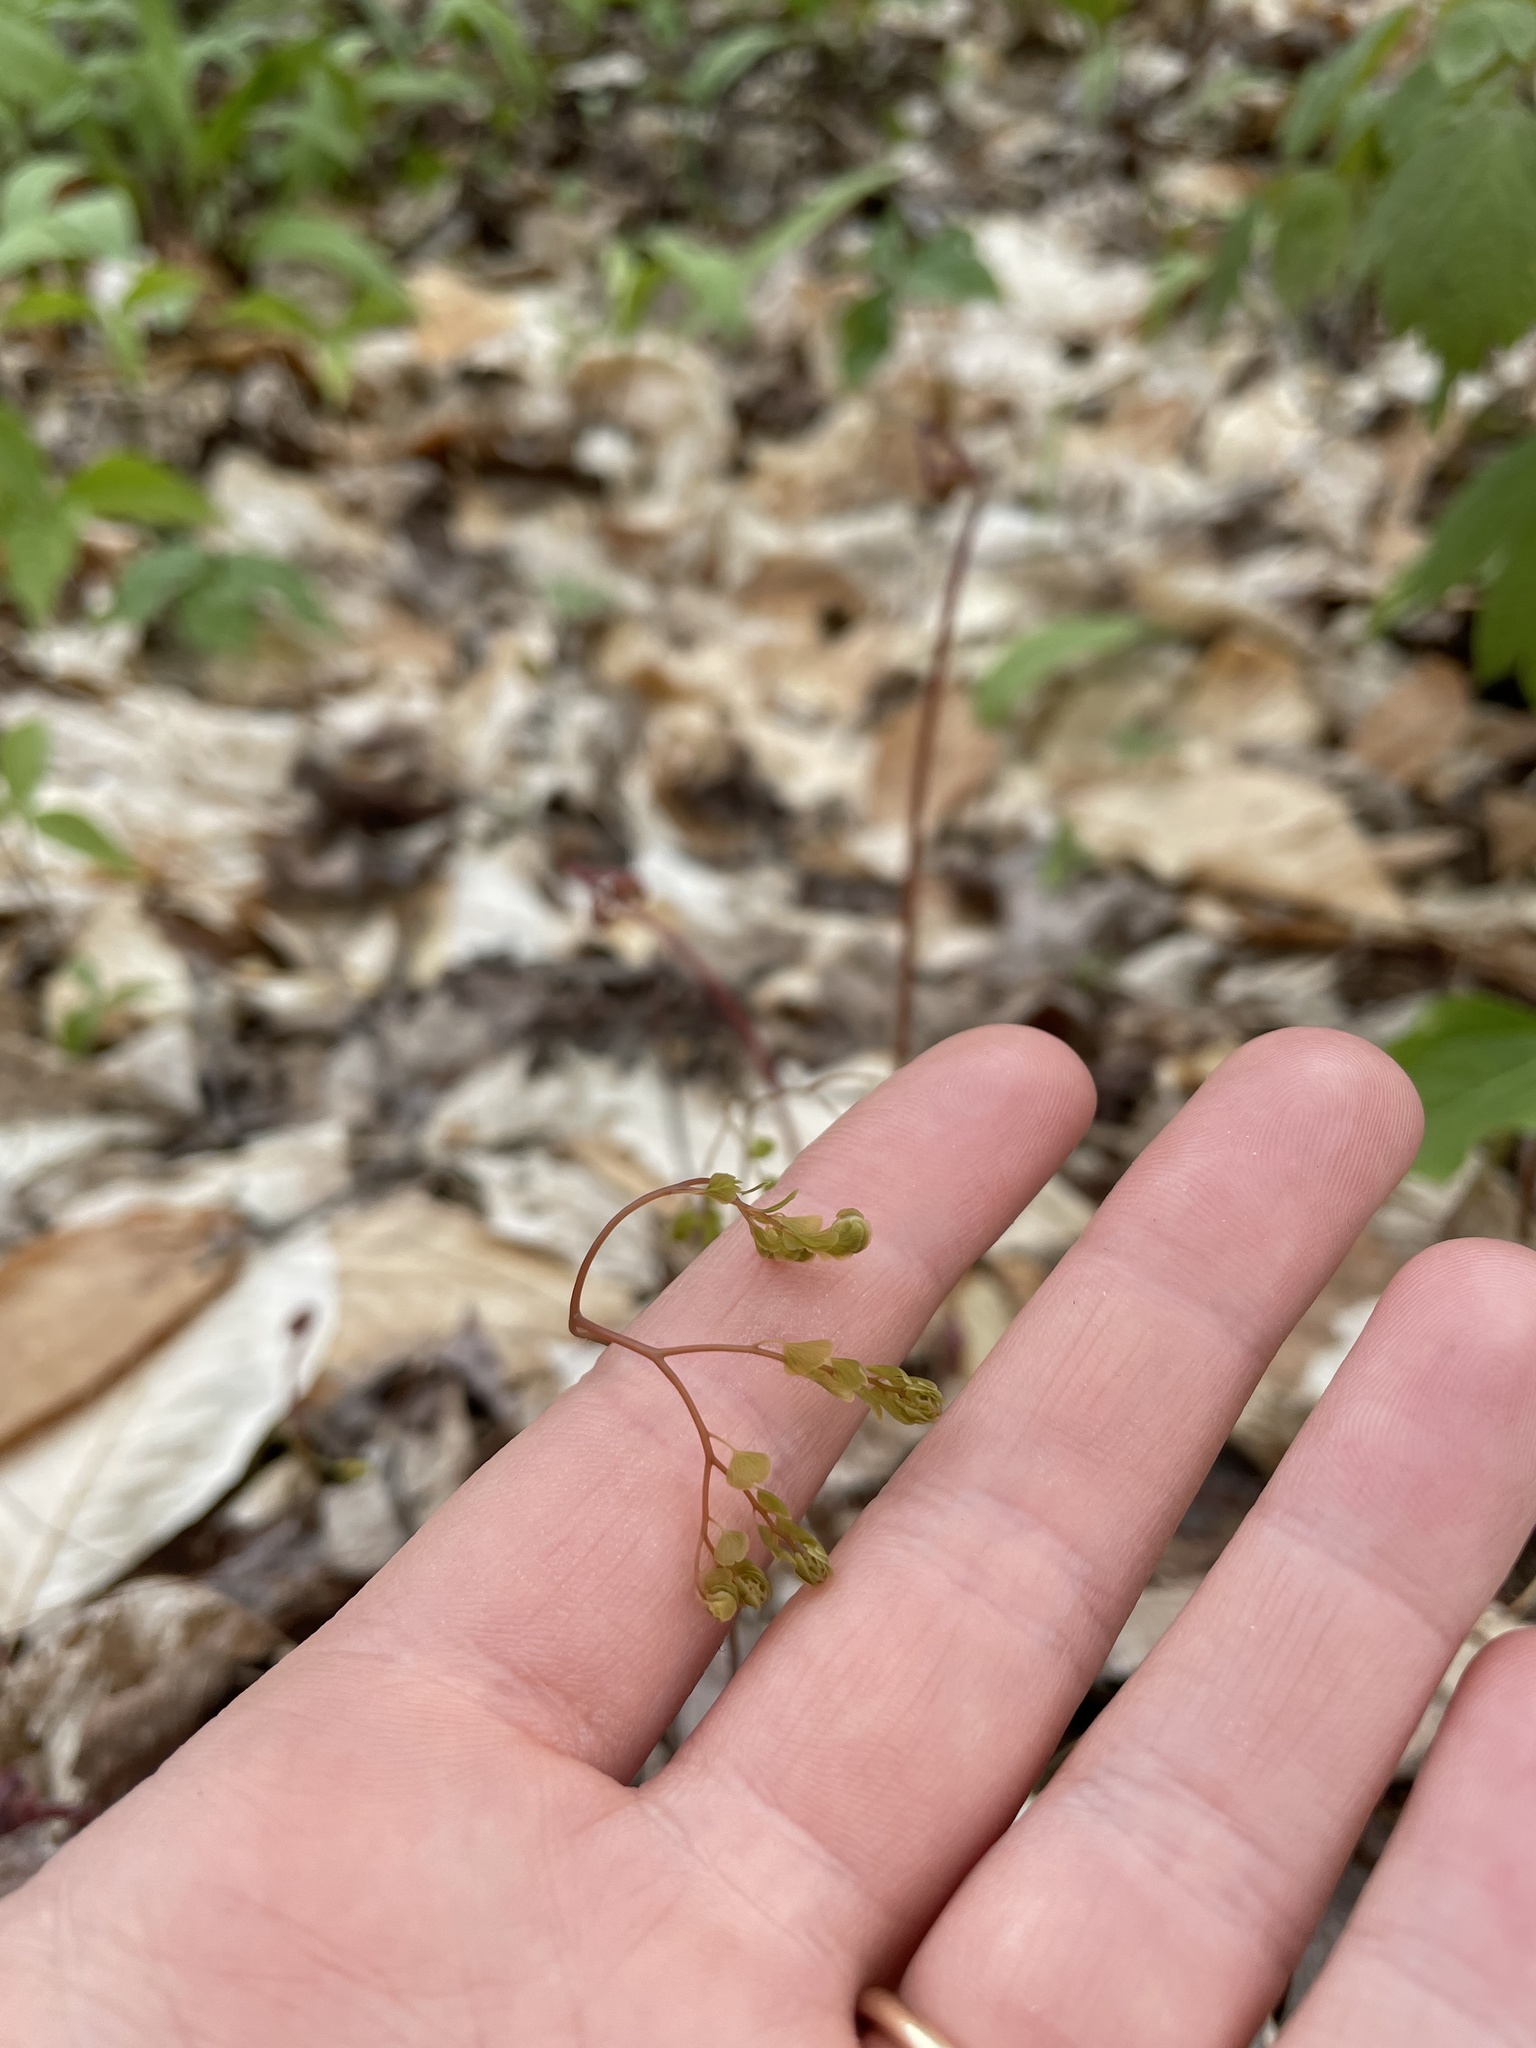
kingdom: Plantae
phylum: Tracheophyta
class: Polypodiopsida
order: Polypodiales
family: Pteridaceae
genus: Adiantum
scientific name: Adiantum pedatum
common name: Five-finger fern
